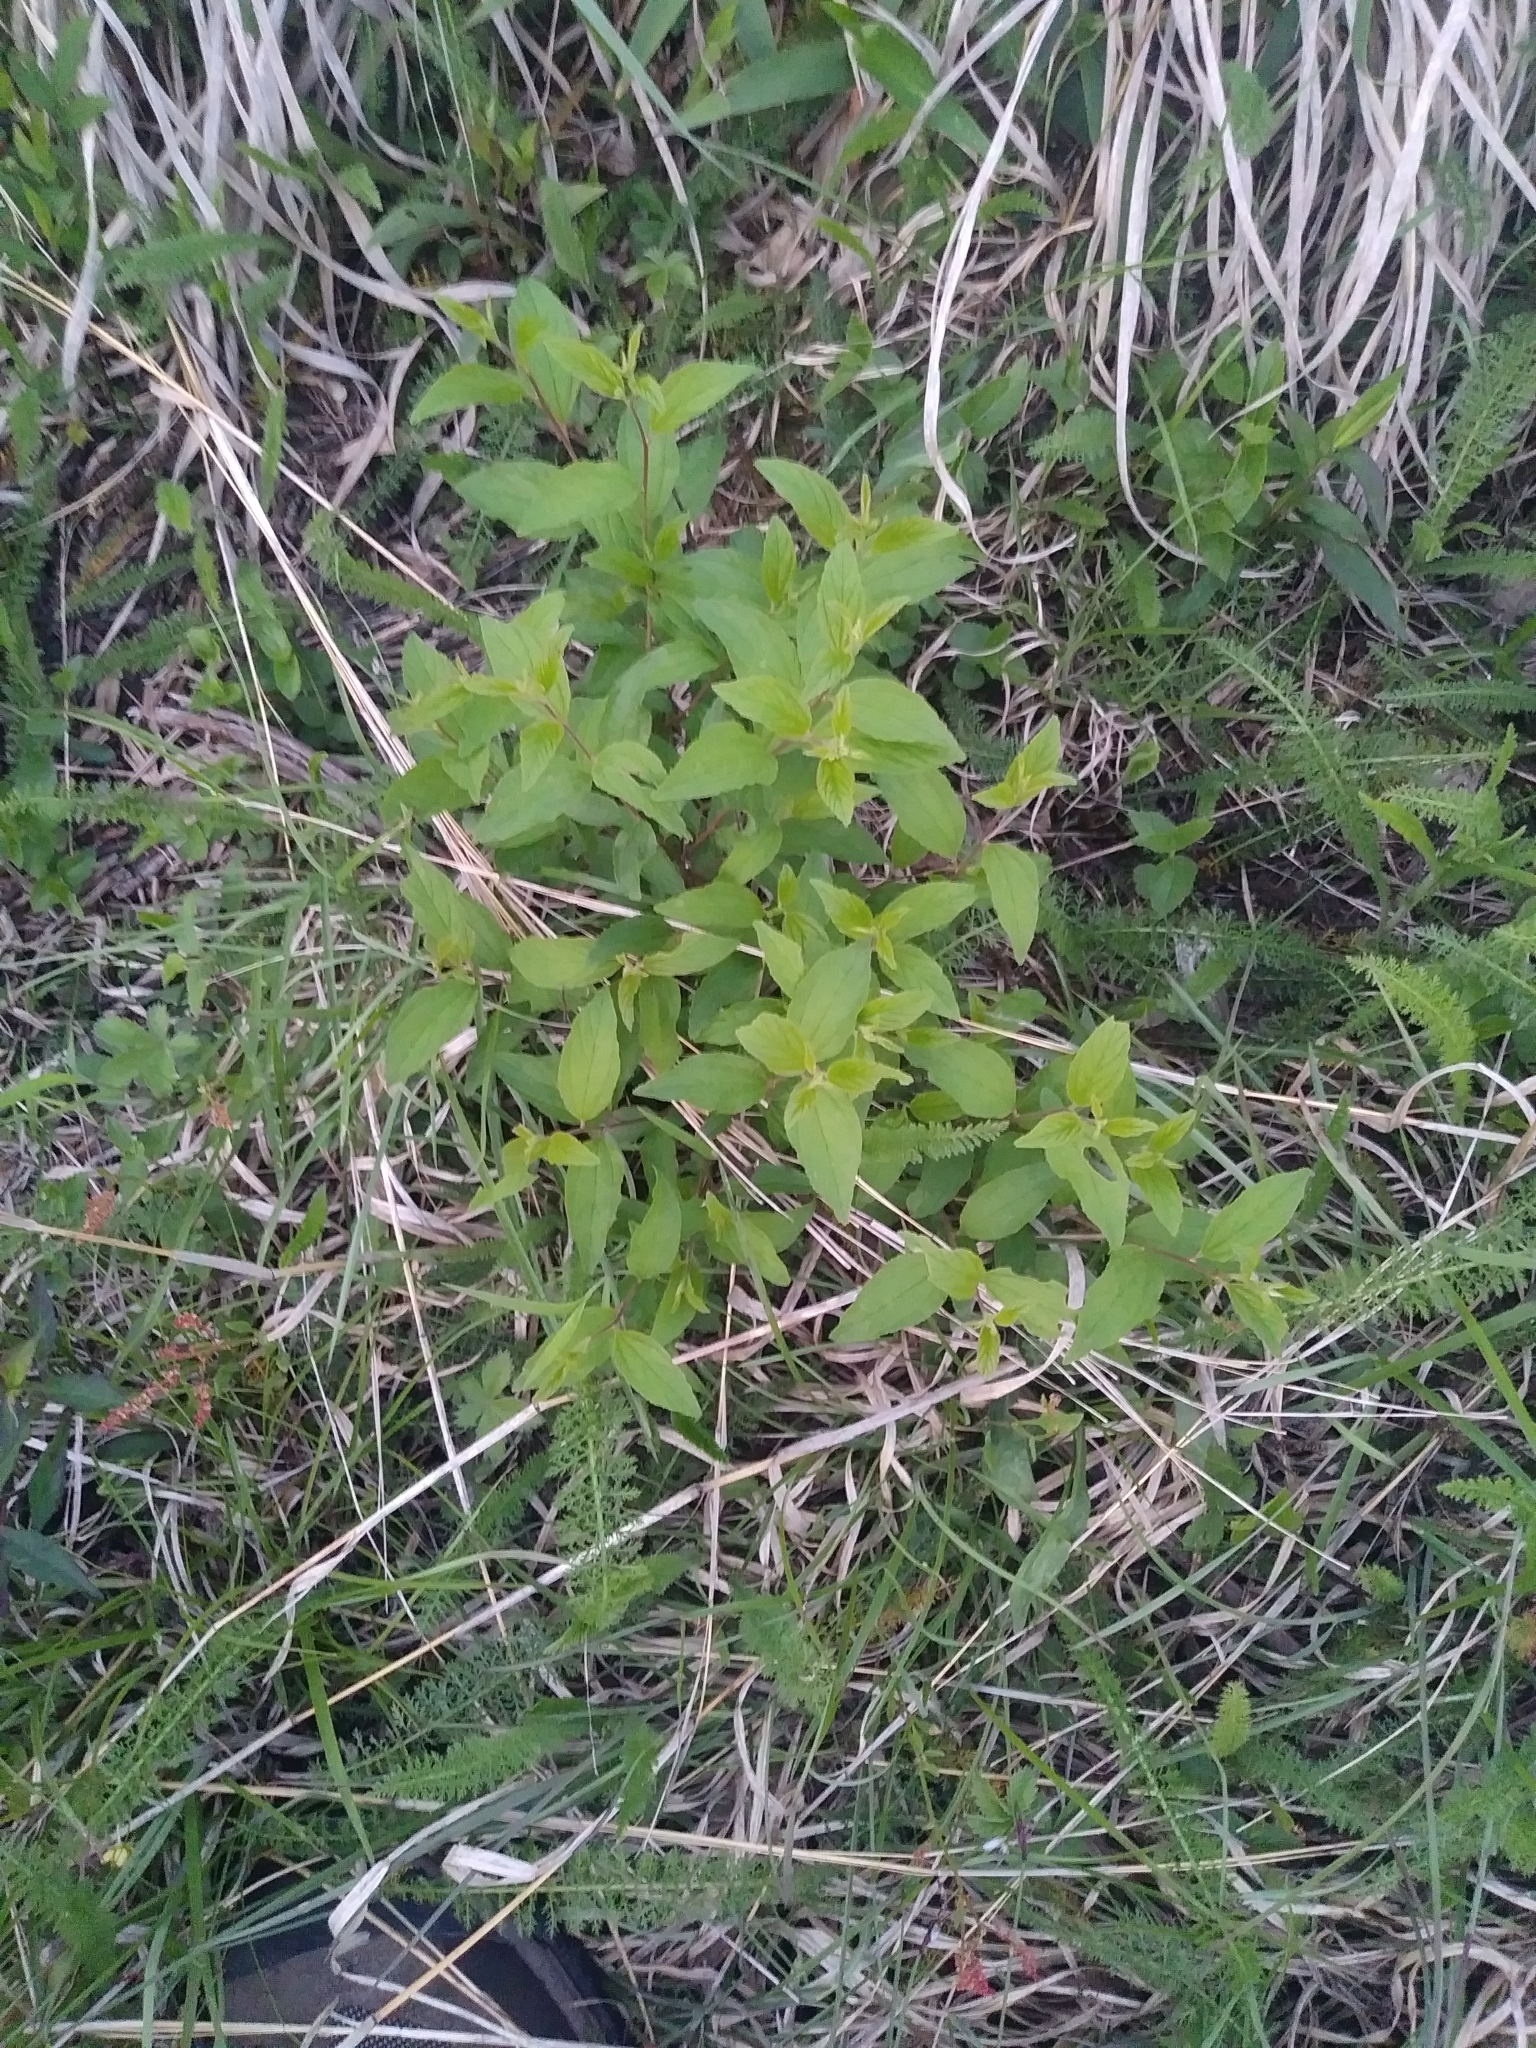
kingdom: Plantae
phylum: Tracheophyta
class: Magnoliopsida
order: Rosales
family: Rhamnaceae
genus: Ceanothus
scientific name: Ceanothus americanus
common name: Redroot
